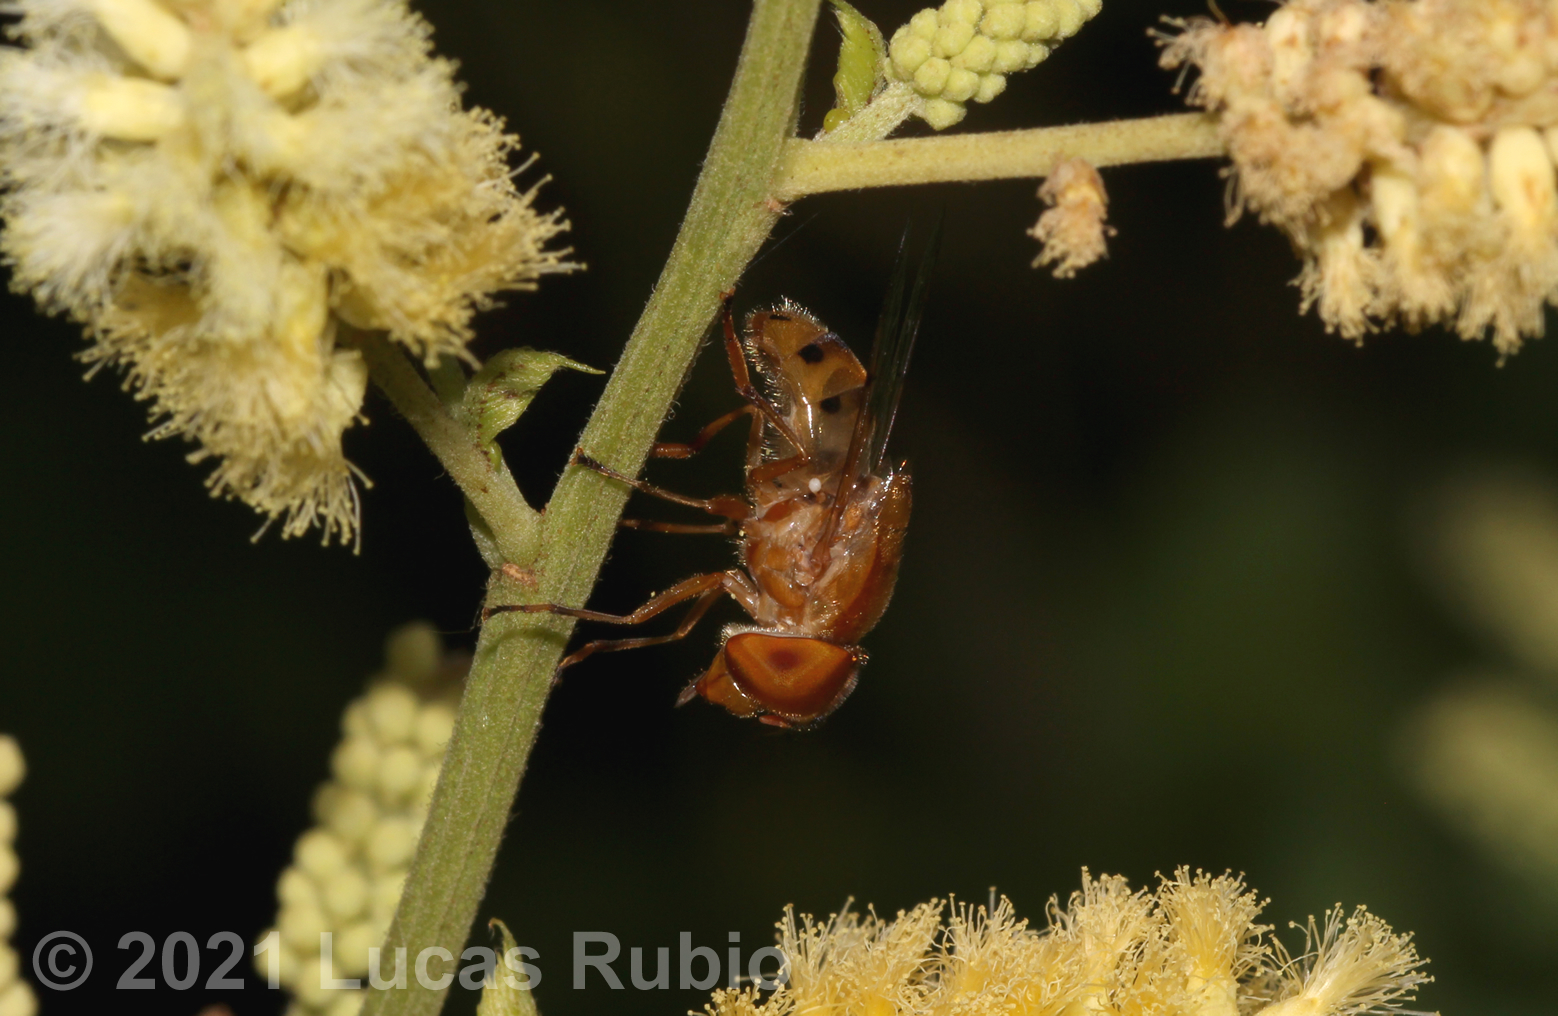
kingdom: Animalia
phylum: Arthropoda
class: Insecta
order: Diptera
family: Syrphidae
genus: Copestylum
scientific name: Copestylum sexmaculatum
